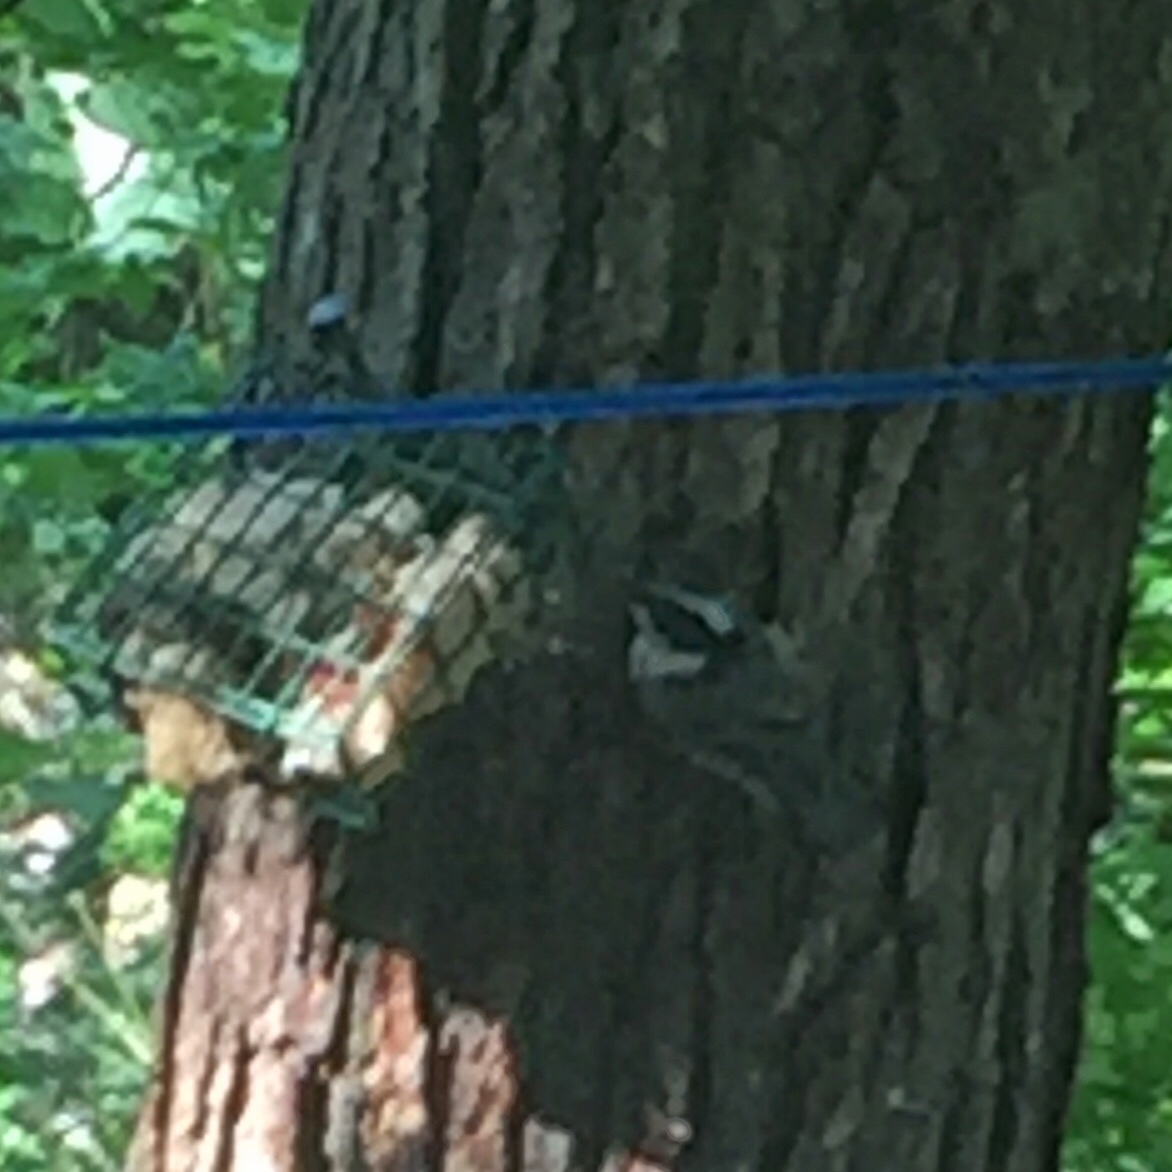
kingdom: Animalia
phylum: Chordata
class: Aves
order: Passeriformes
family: Sittidae
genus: Sitta
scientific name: Sitta carolinensis
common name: White-breasted nuthatch
